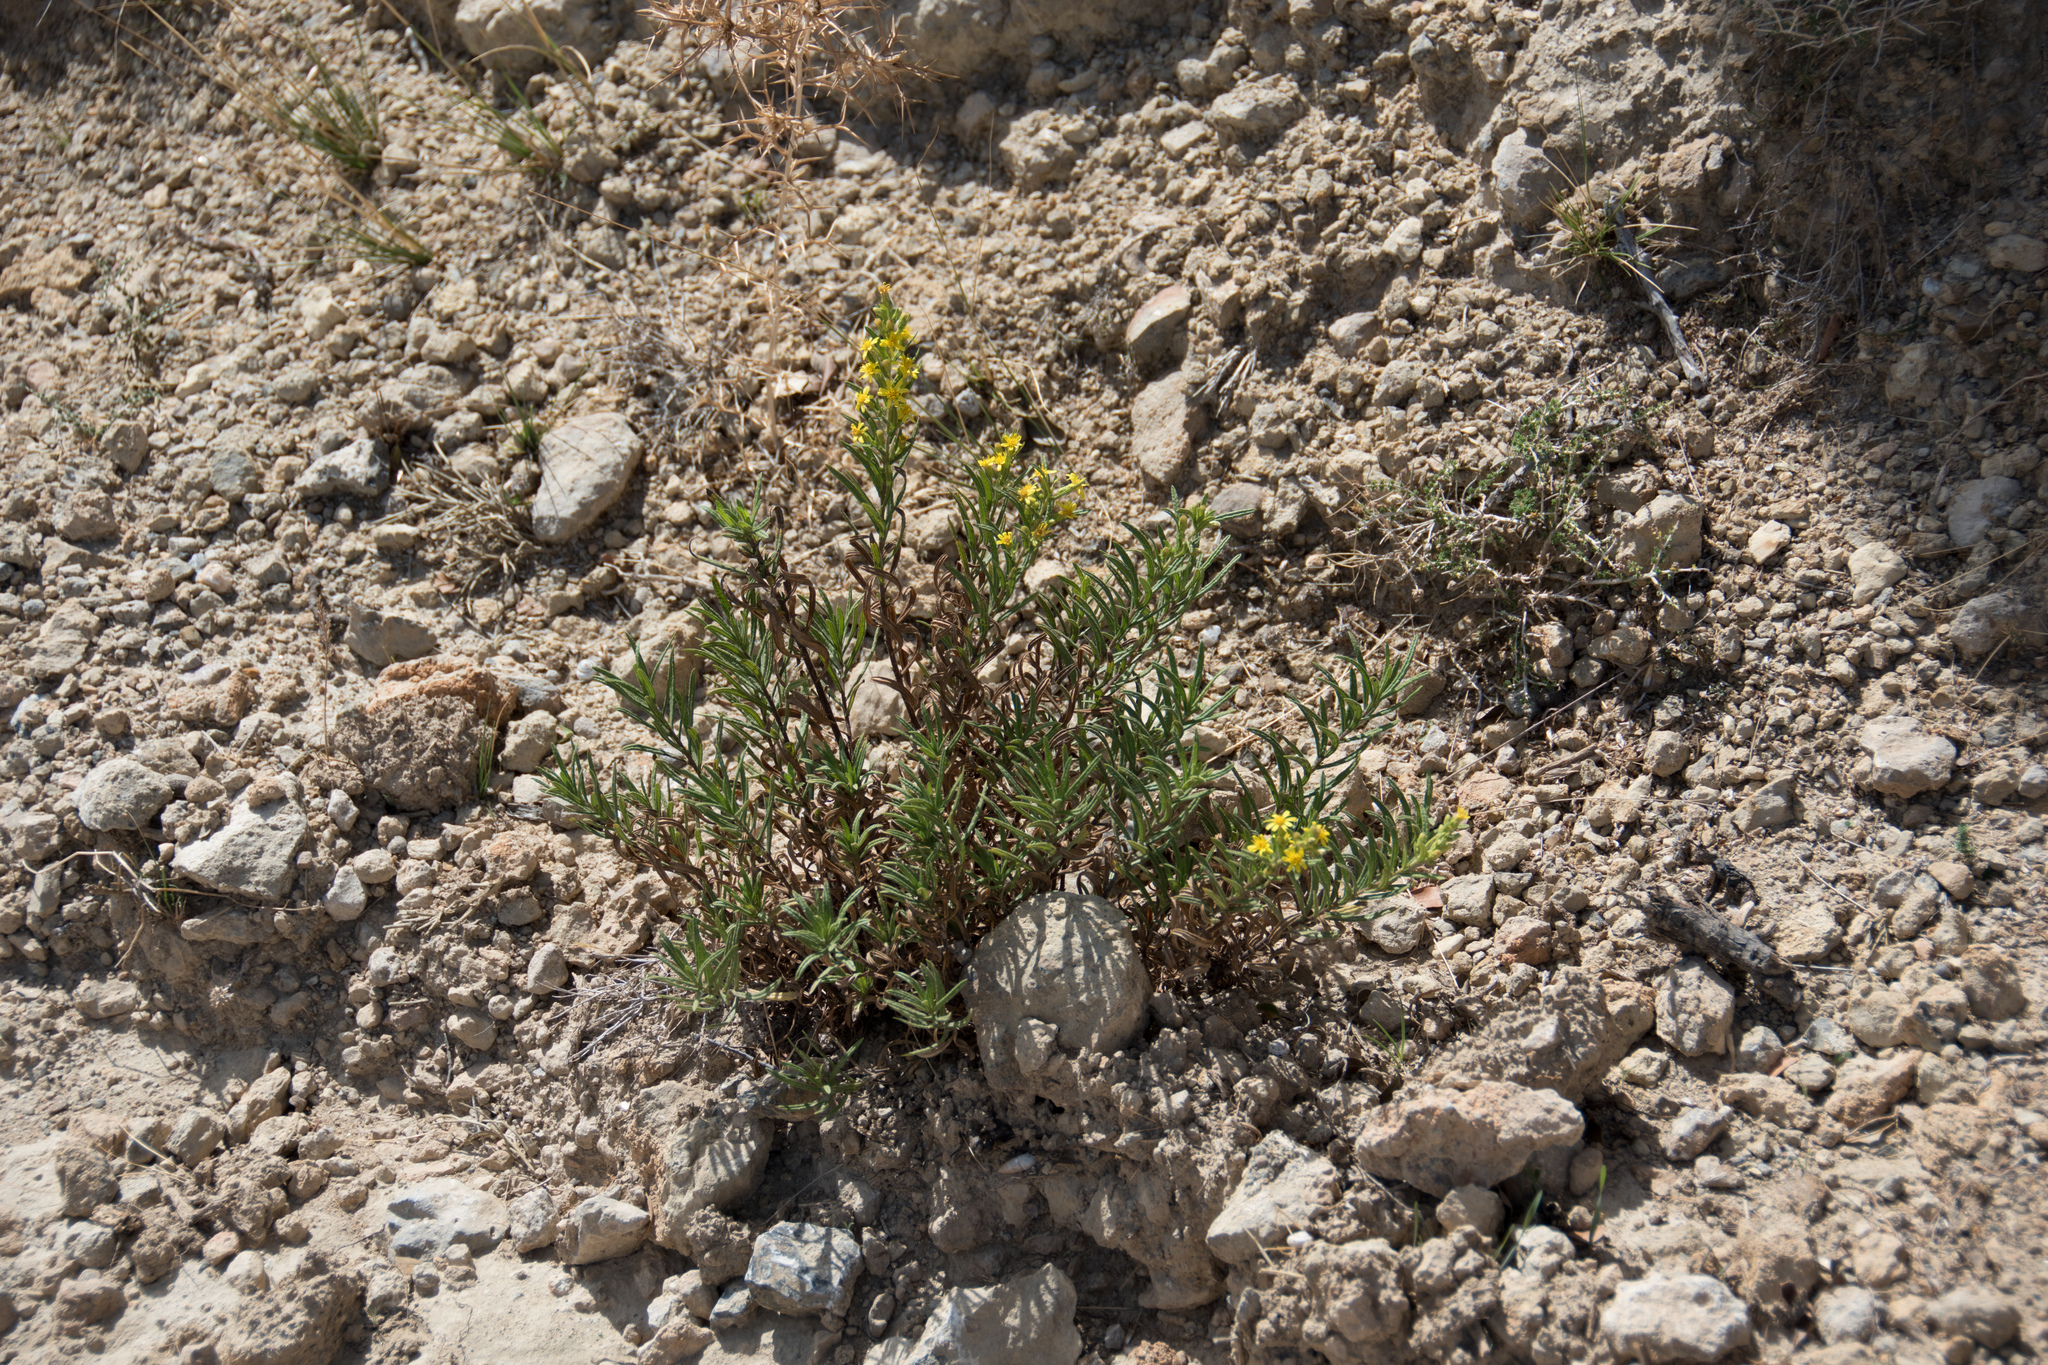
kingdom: Plantae
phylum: Tracheophyta
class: Magnoliopsida
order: Asterales
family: Asteraceae
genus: Dittrichia
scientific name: Dittrichia viscosa
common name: Woody fleabane
